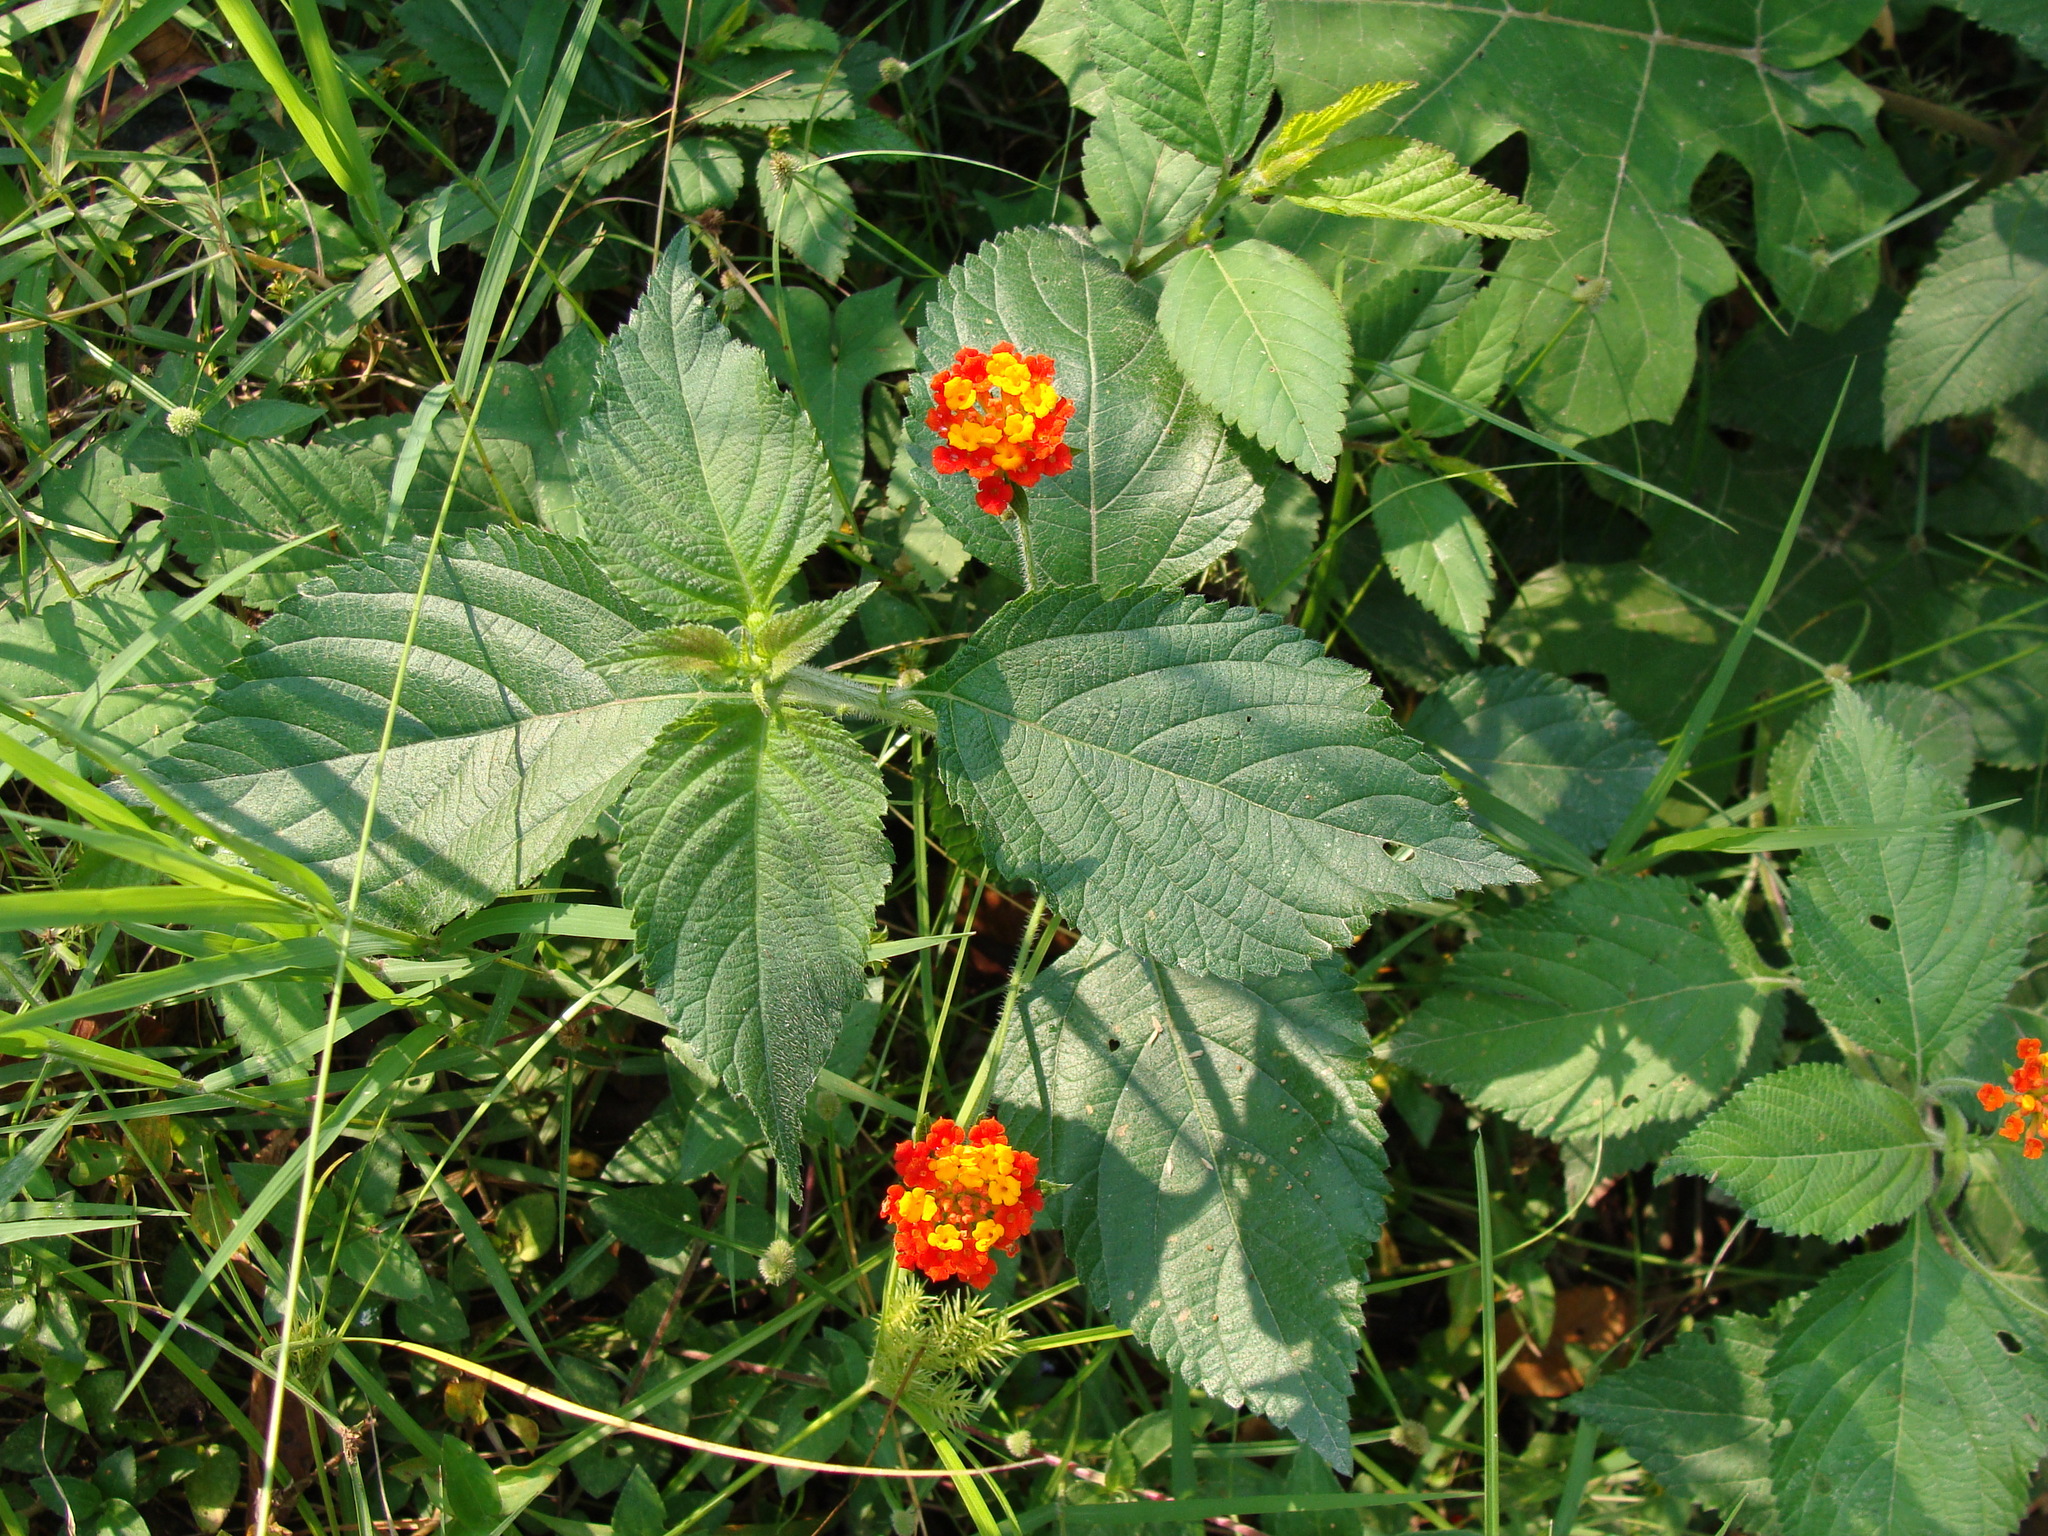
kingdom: Plantae
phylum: Tracheophyta
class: Magnoliopsida
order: Lamiales
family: Verbenaceae
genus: Lantana
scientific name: Lantana camara
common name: Lantana
